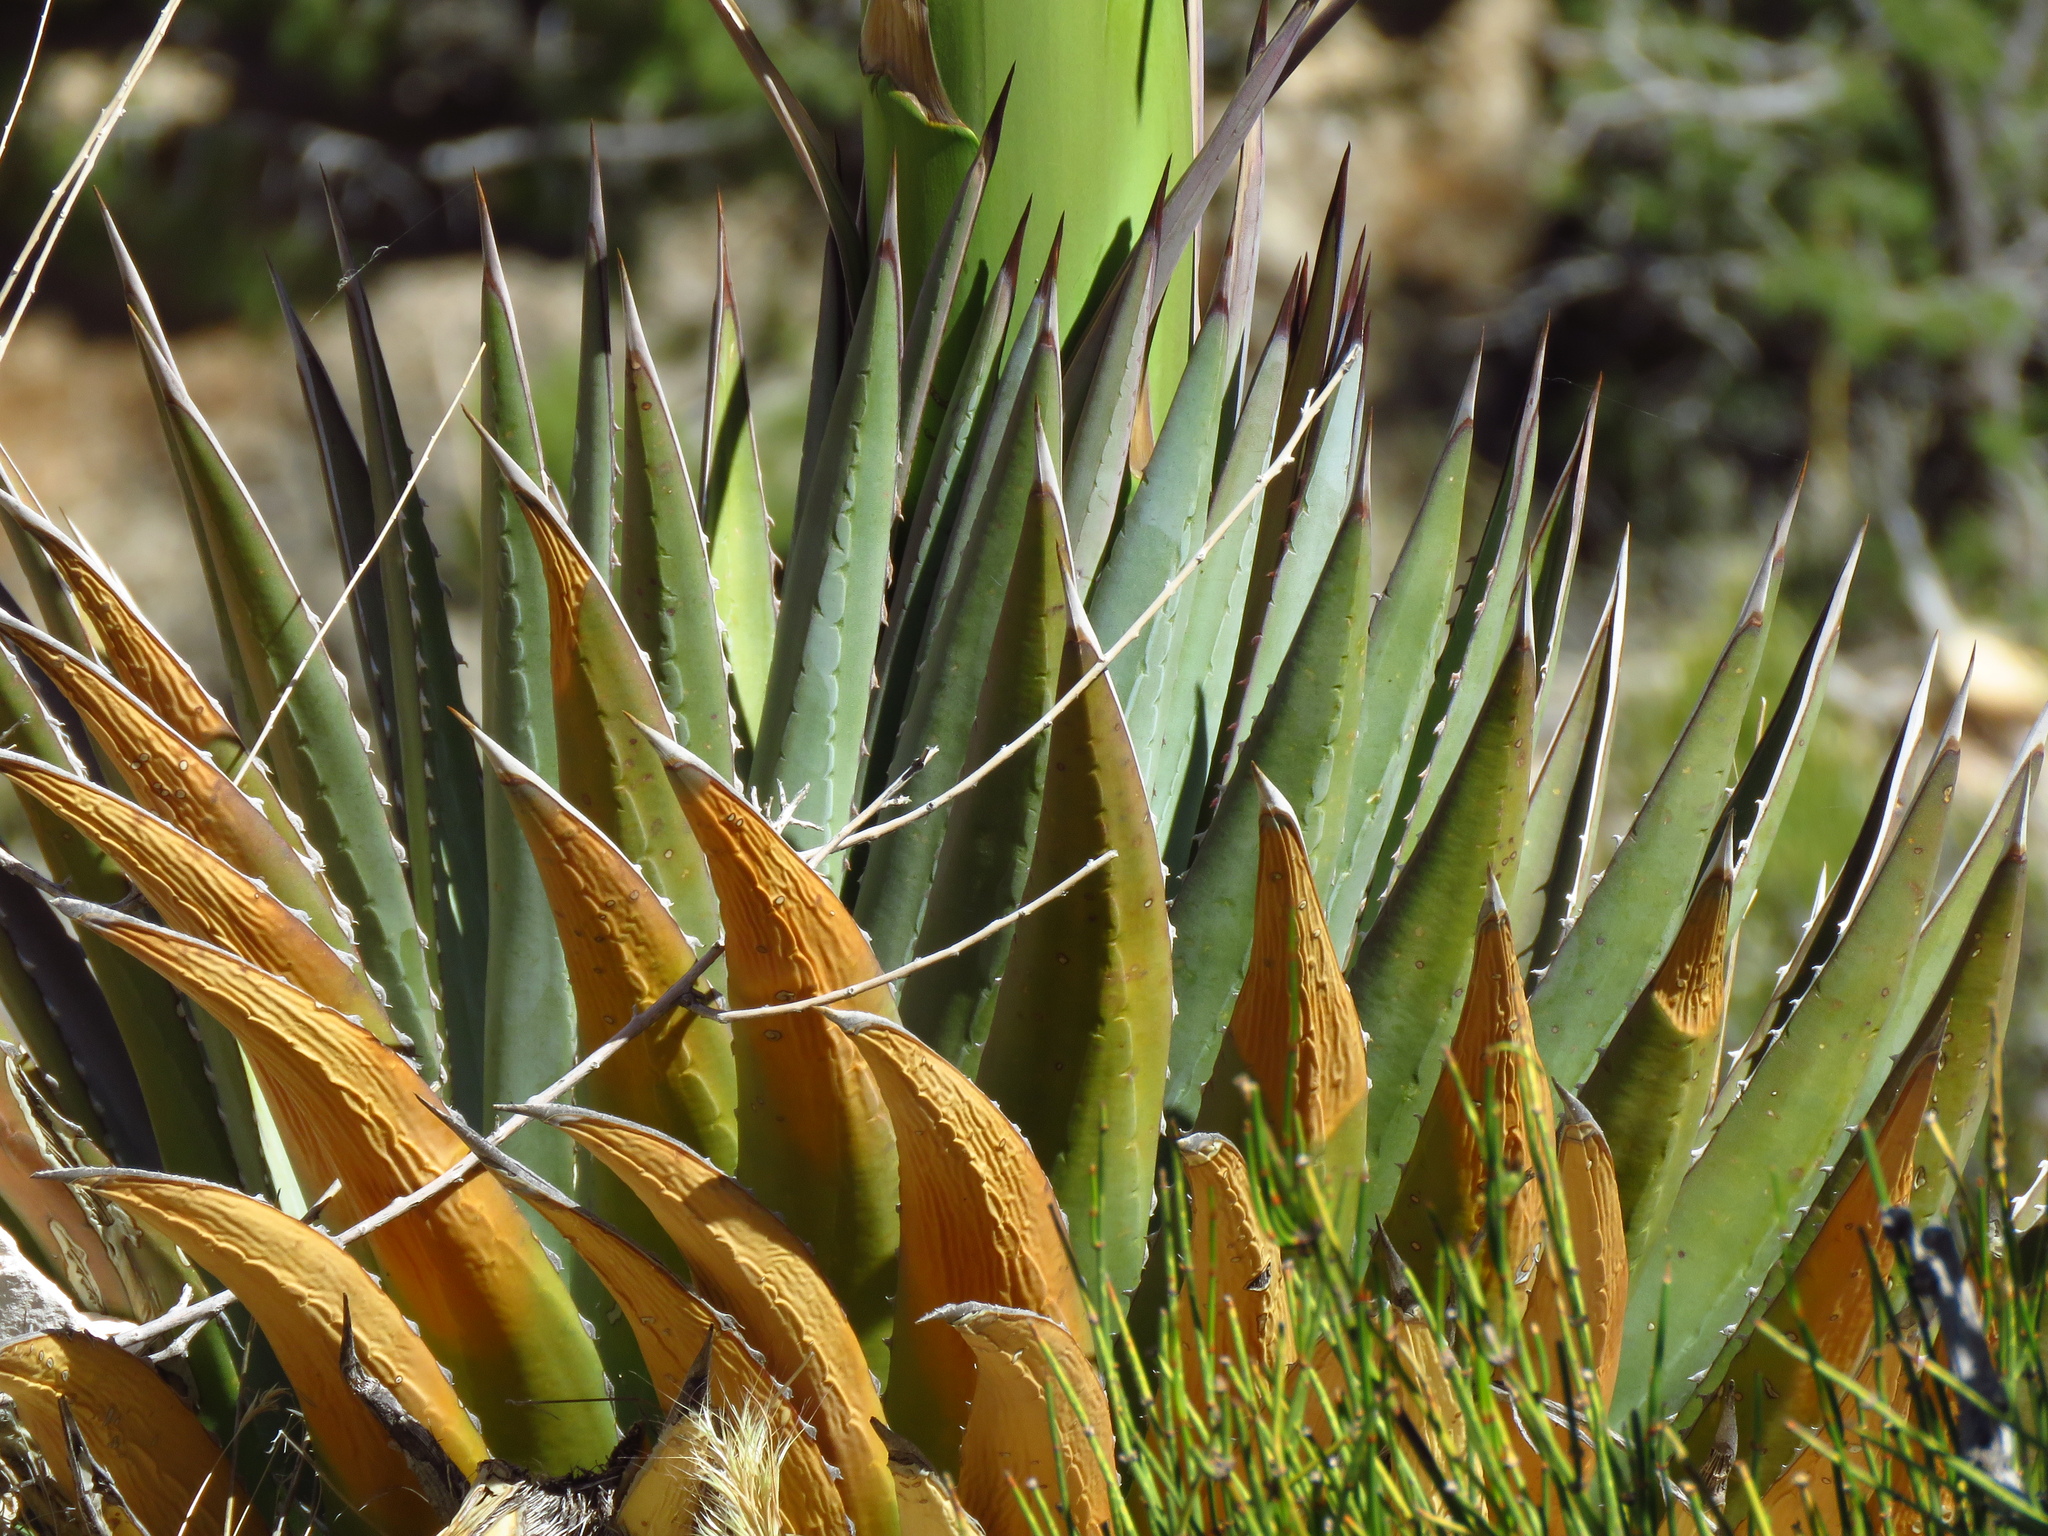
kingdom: Plantae
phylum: Tracheophyta
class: Liliopsida
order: Asparagales
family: Asparagaceae
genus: Agave
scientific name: Agave utahensis
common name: Utah agave
